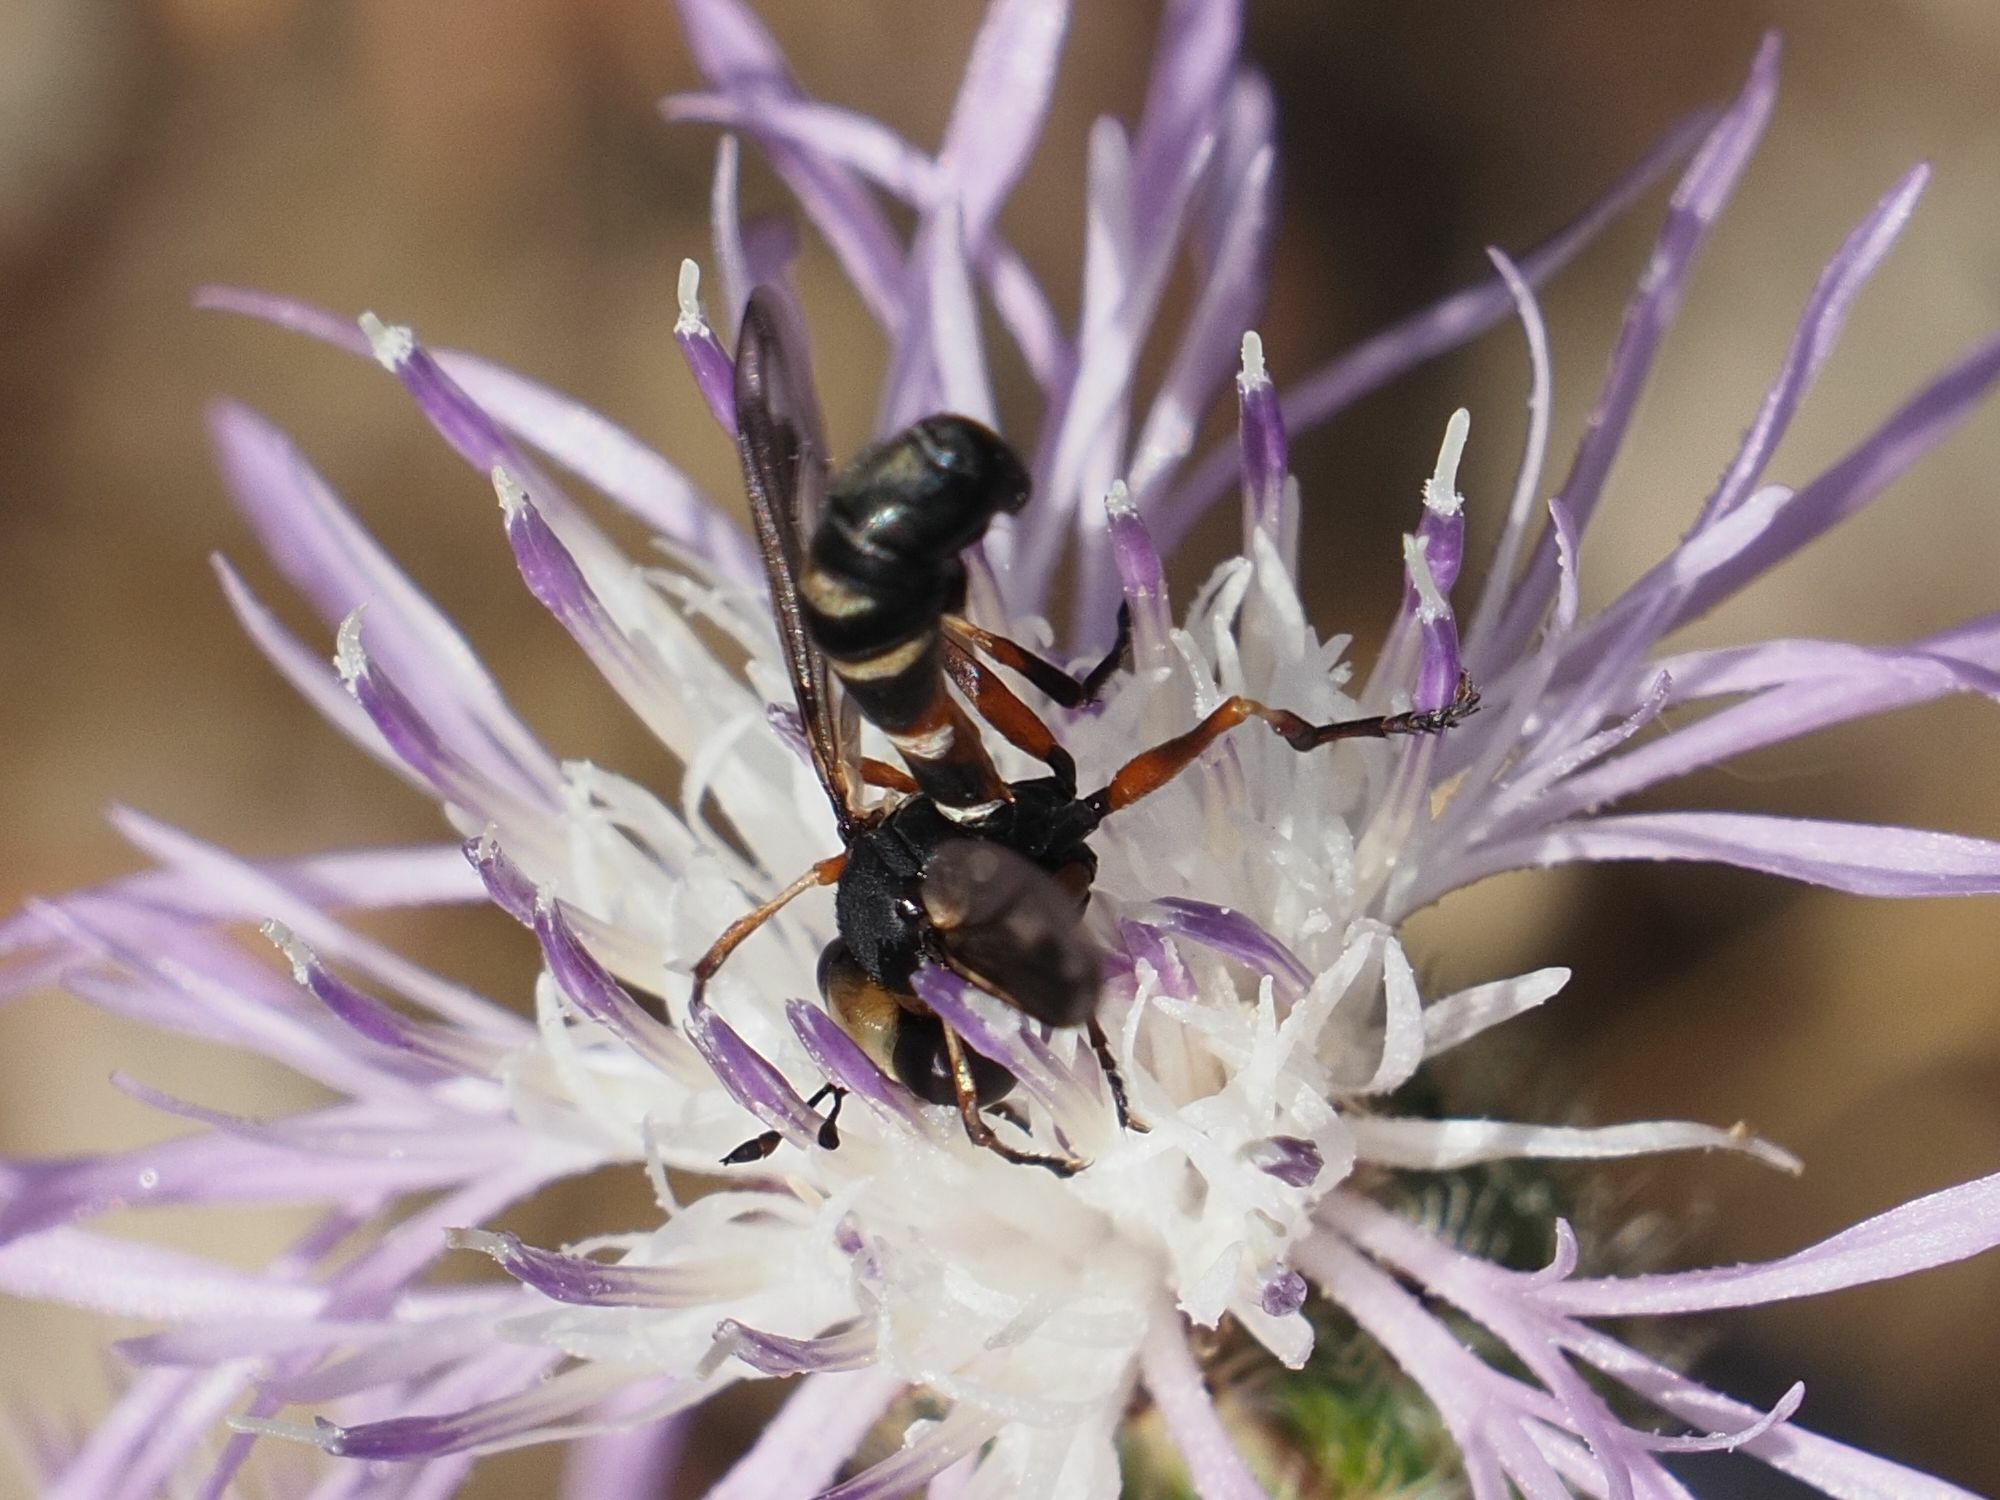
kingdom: Animalia
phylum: Arthropoda
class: Insecta
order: Diptera
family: Conopidae
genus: Physocephala
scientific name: Physocephala vittata
